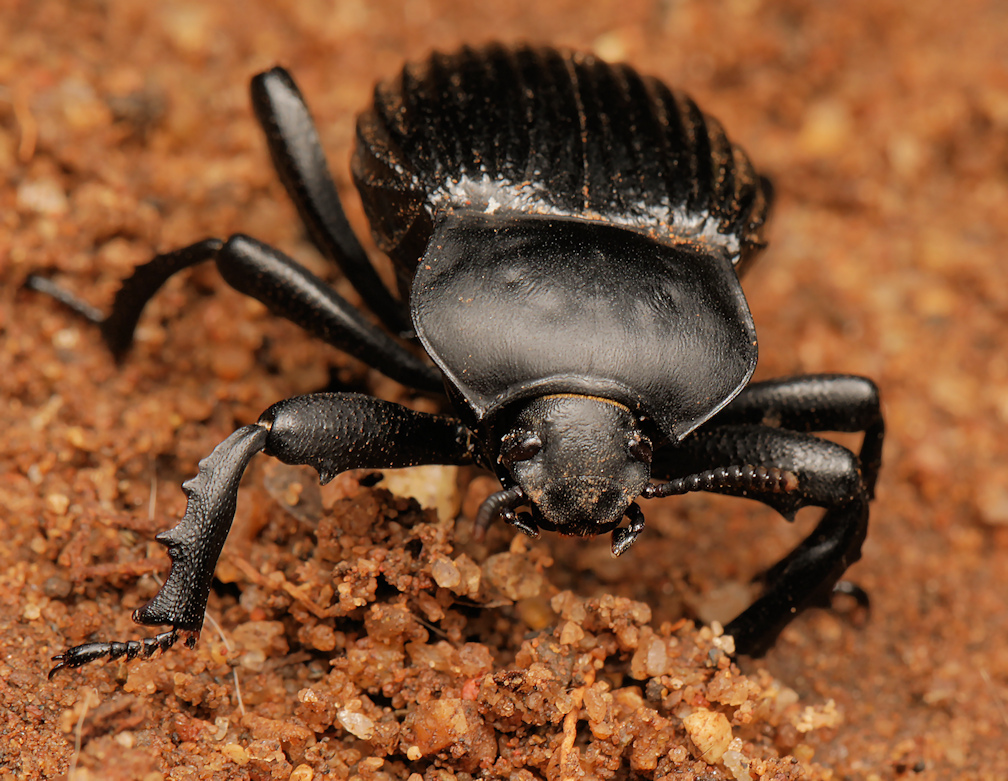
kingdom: Animalia
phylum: Arthropoda
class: Insecta
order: Coleoptera
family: Tenebrionidae
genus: Gonopus
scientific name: Gonopus
